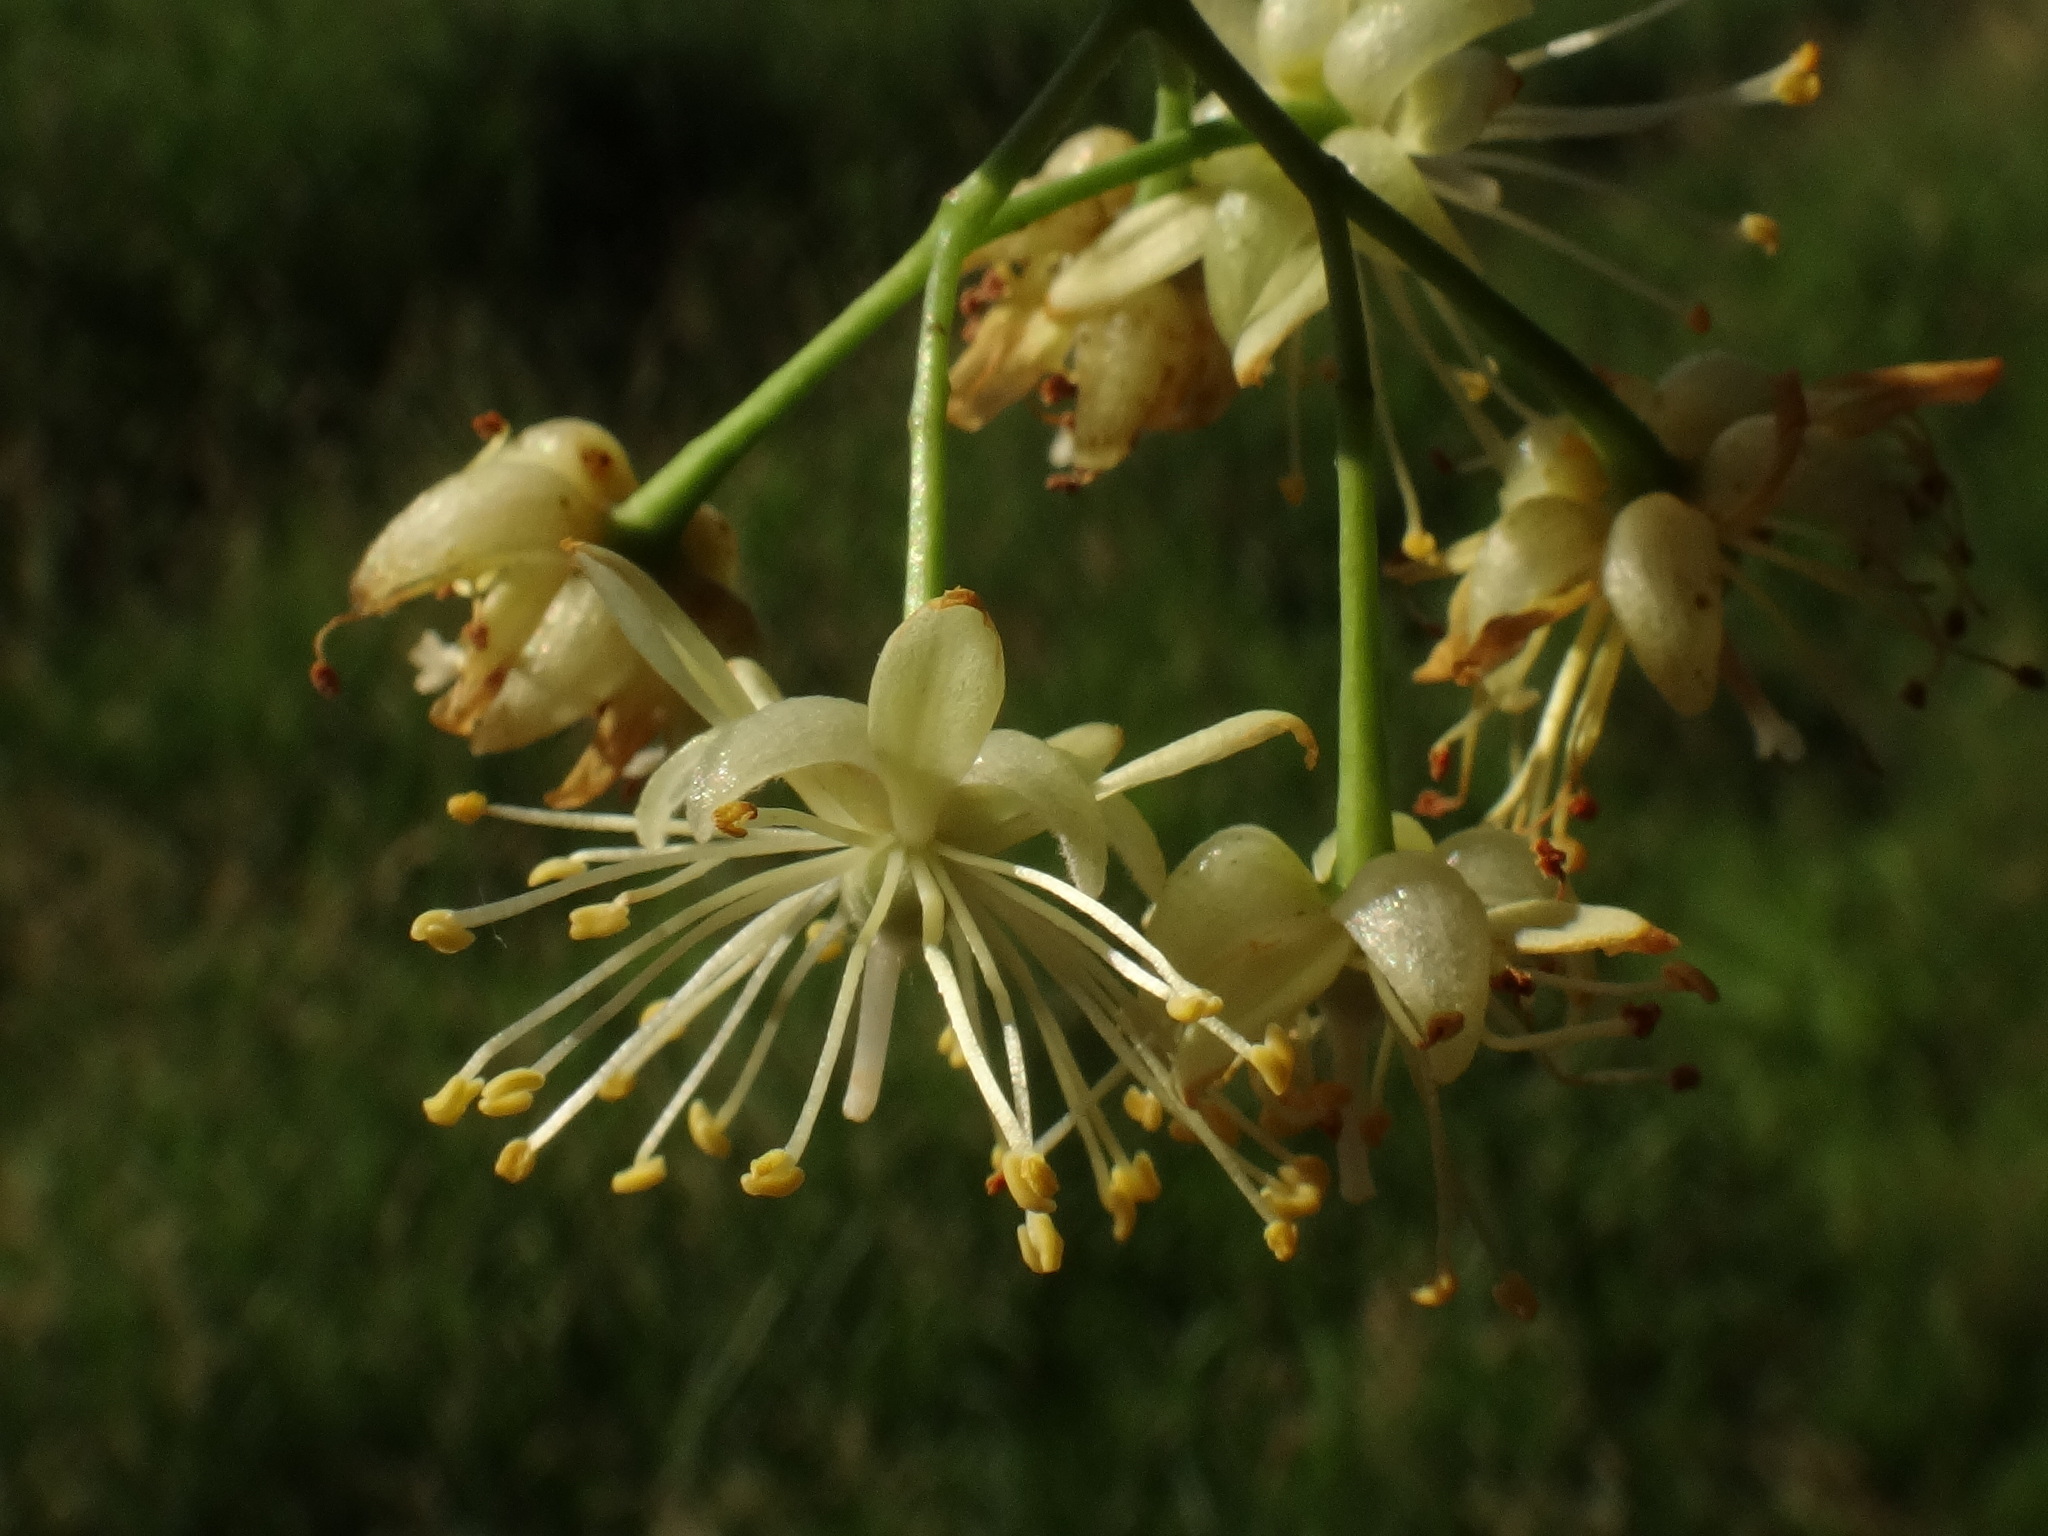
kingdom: Plantae
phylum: Tracheophyta
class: Magnoliopsida
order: Malvales
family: Malvaceae
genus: Tilia
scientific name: Tilia platyphyllos
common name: Large-leaved lime
